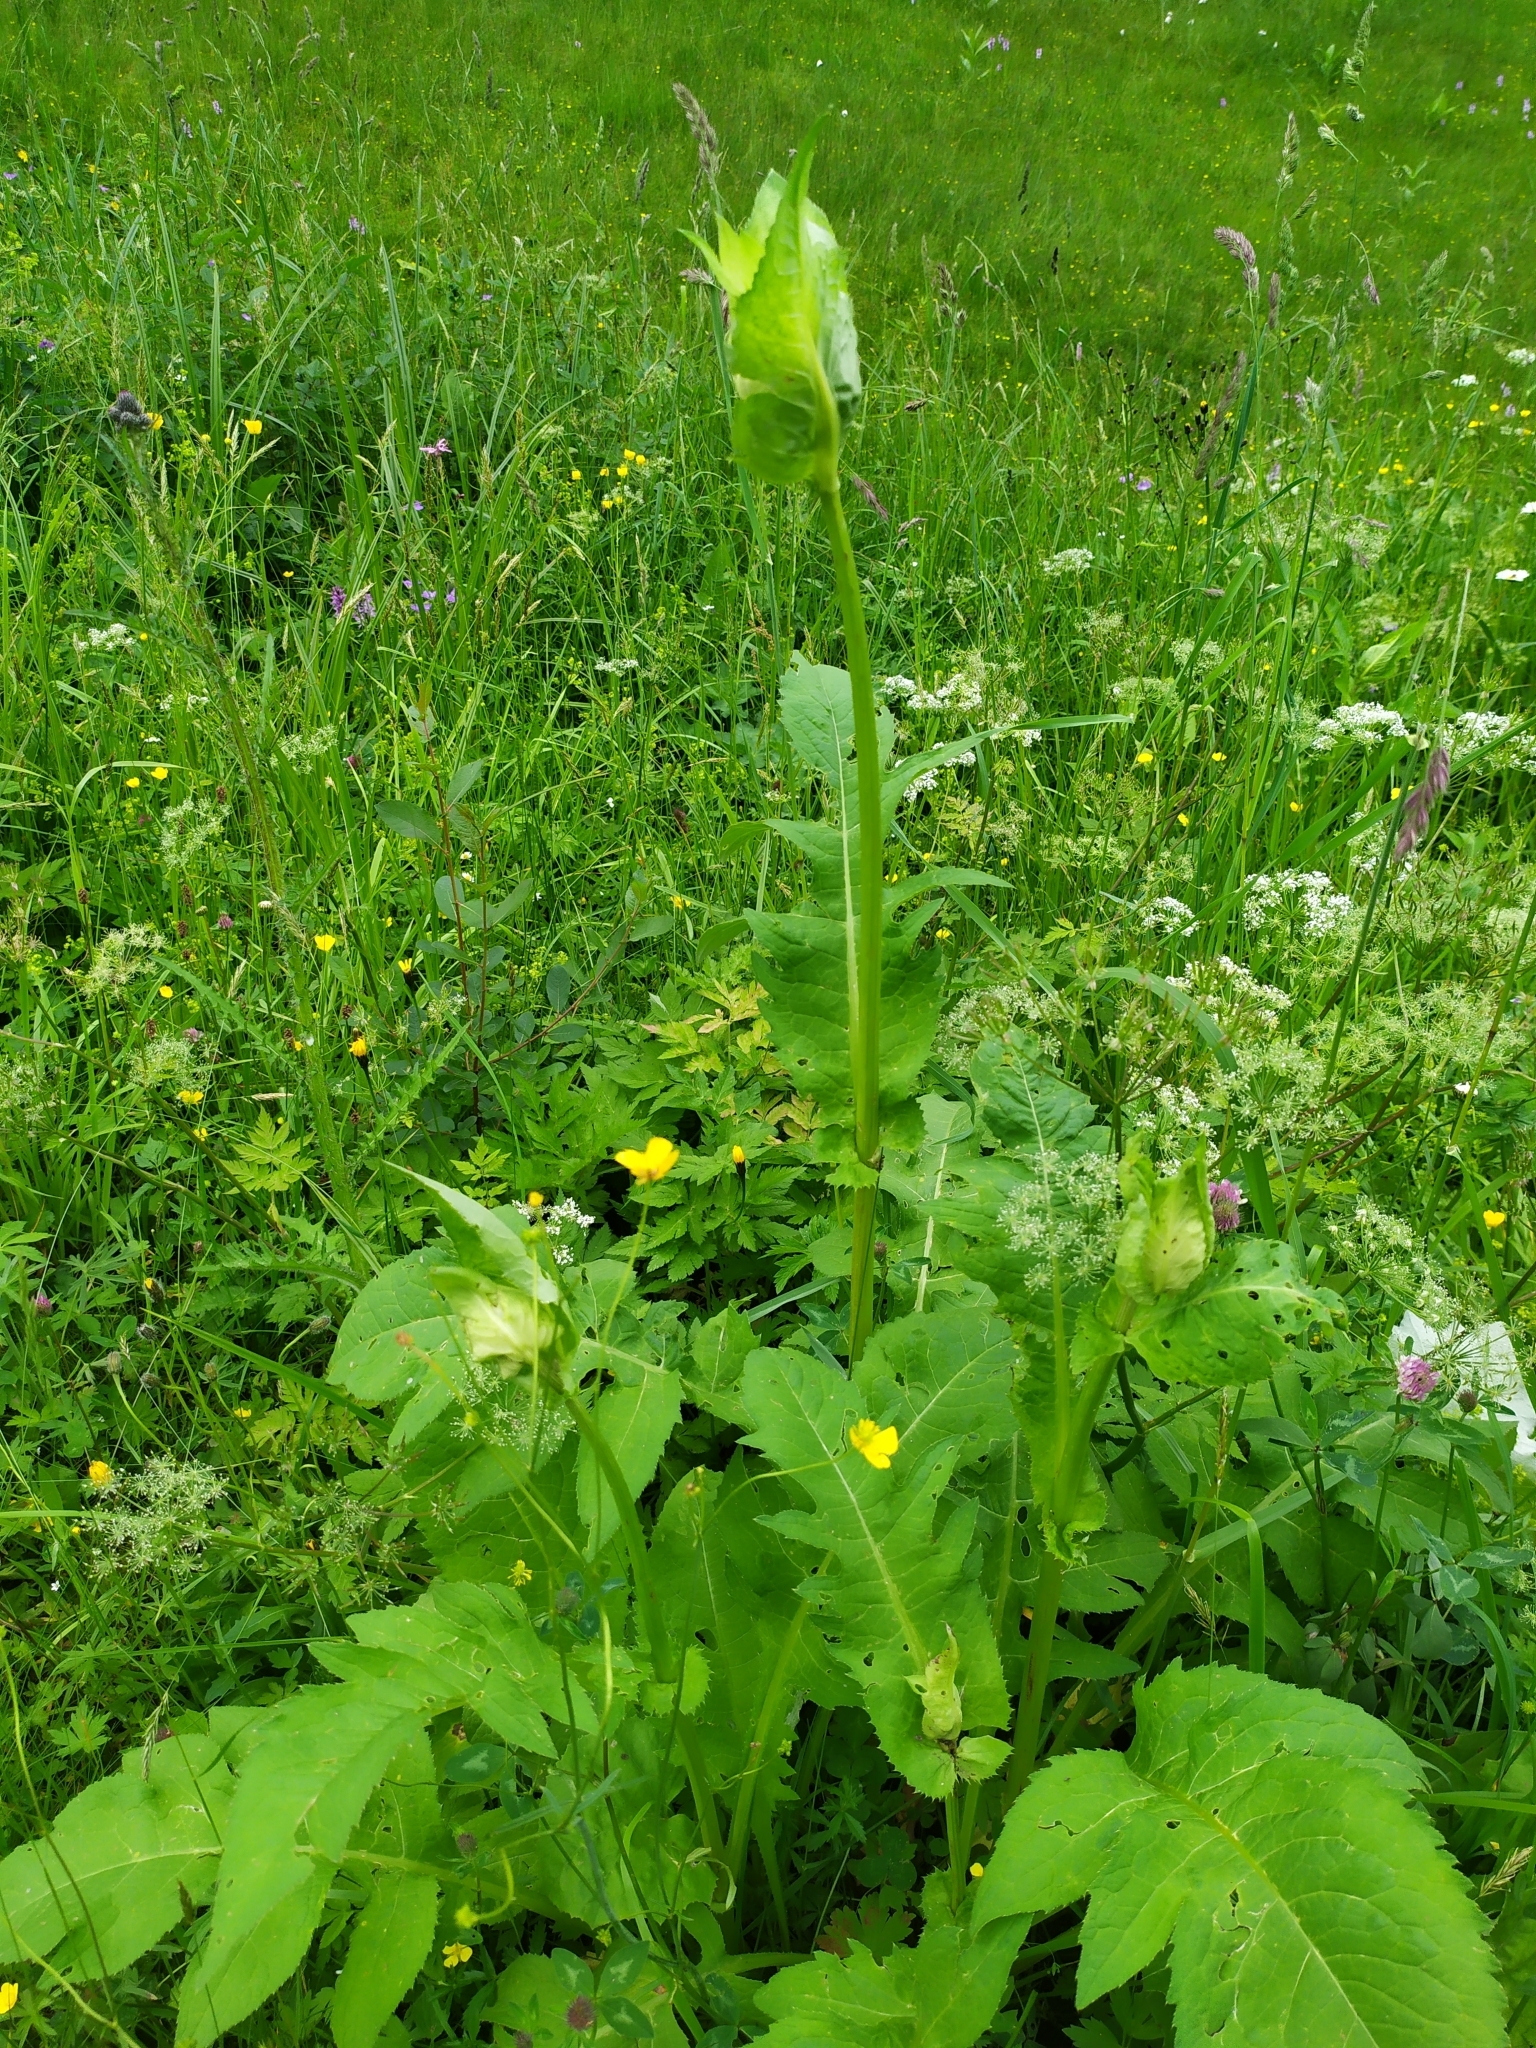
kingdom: Plantae
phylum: Tracheophyta
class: Magnoliopsida
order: Asterales
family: Asteraceae
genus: Cirsium
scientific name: Cirsium oleraceum
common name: Cabbage thistle
